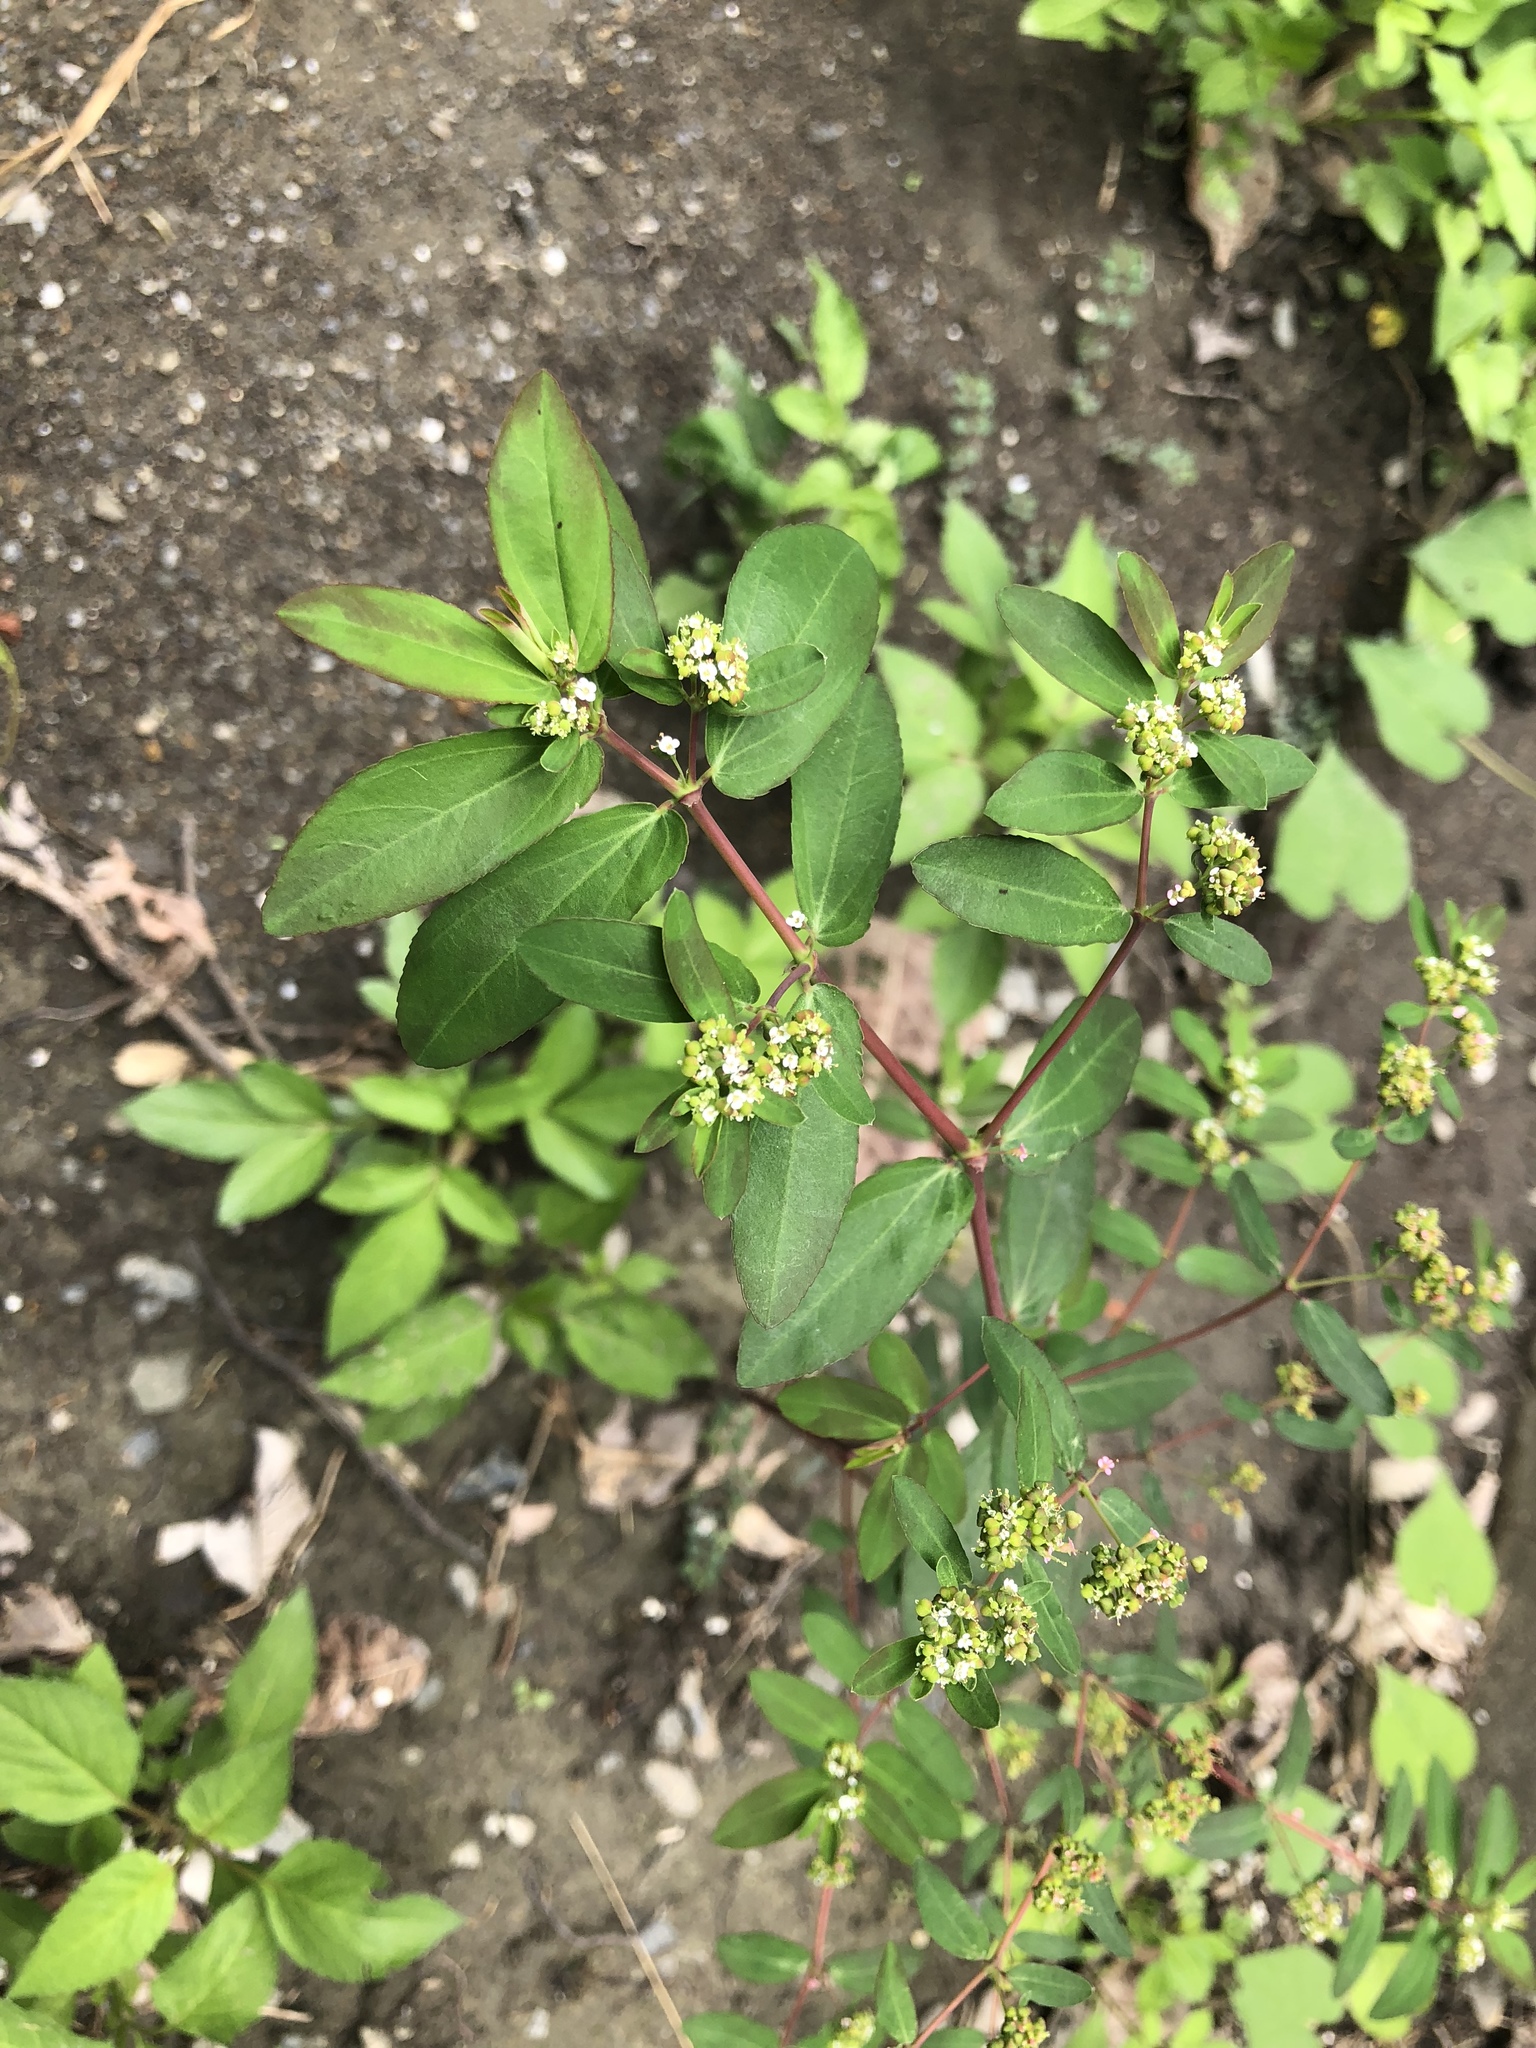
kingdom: Plantae
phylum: Tracheophyta
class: Magnoliopsida
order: Malpighiales
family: Euphorbiaceae
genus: Euphorbia
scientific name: Euphorbia hypericifolia
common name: Graceful sandmat
